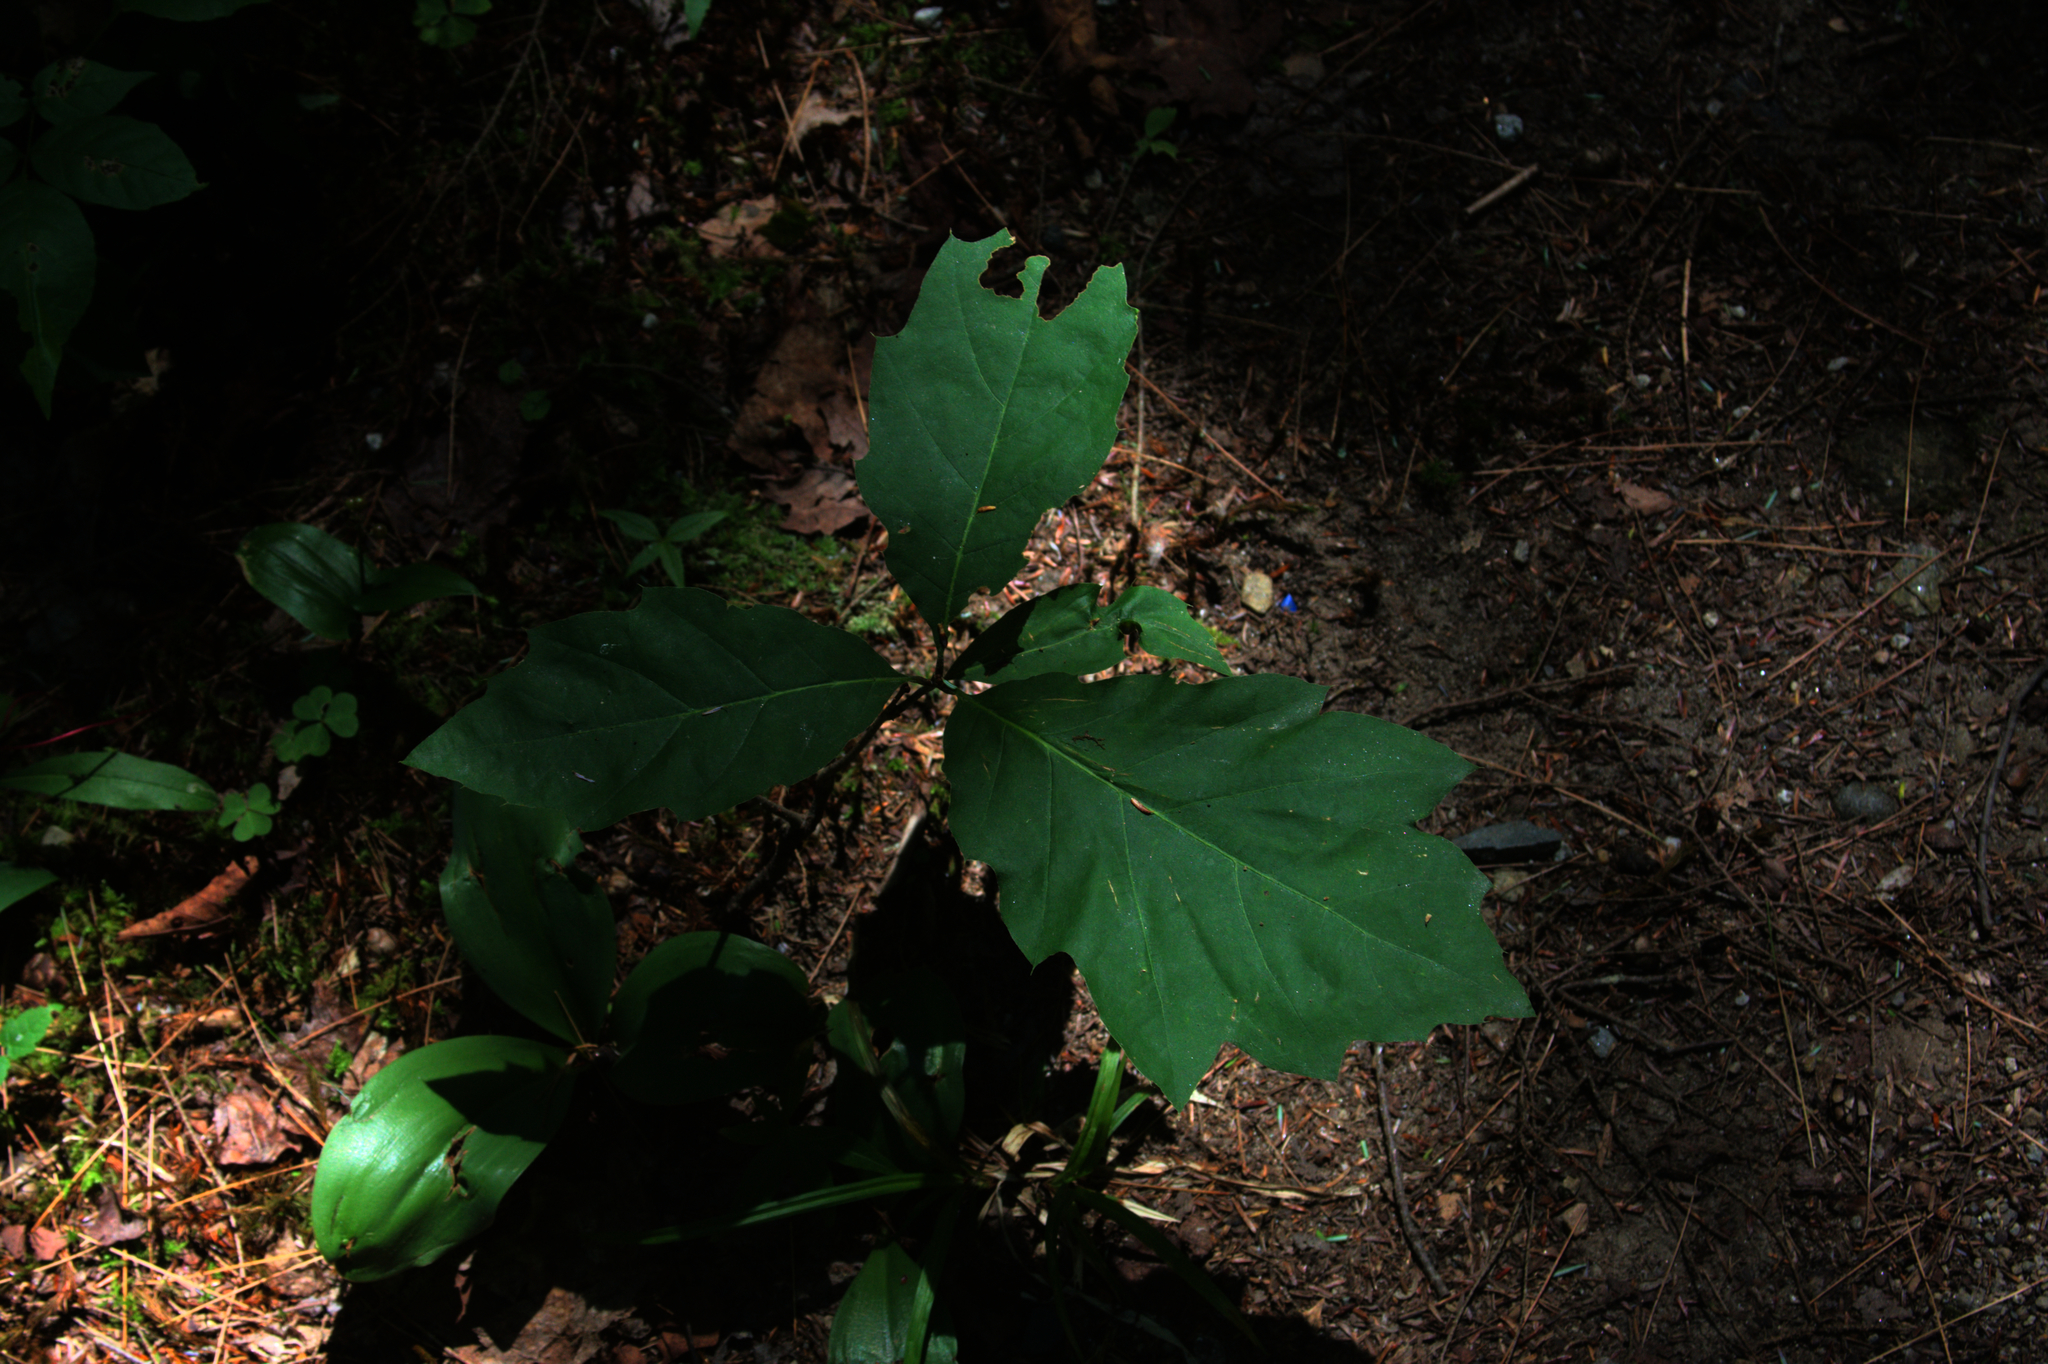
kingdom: Plantae
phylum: Tracheophyta
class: Magnoliopsida
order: Fagales
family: Fagaceae
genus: Quercus
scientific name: Quercus rubra
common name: Red oak
